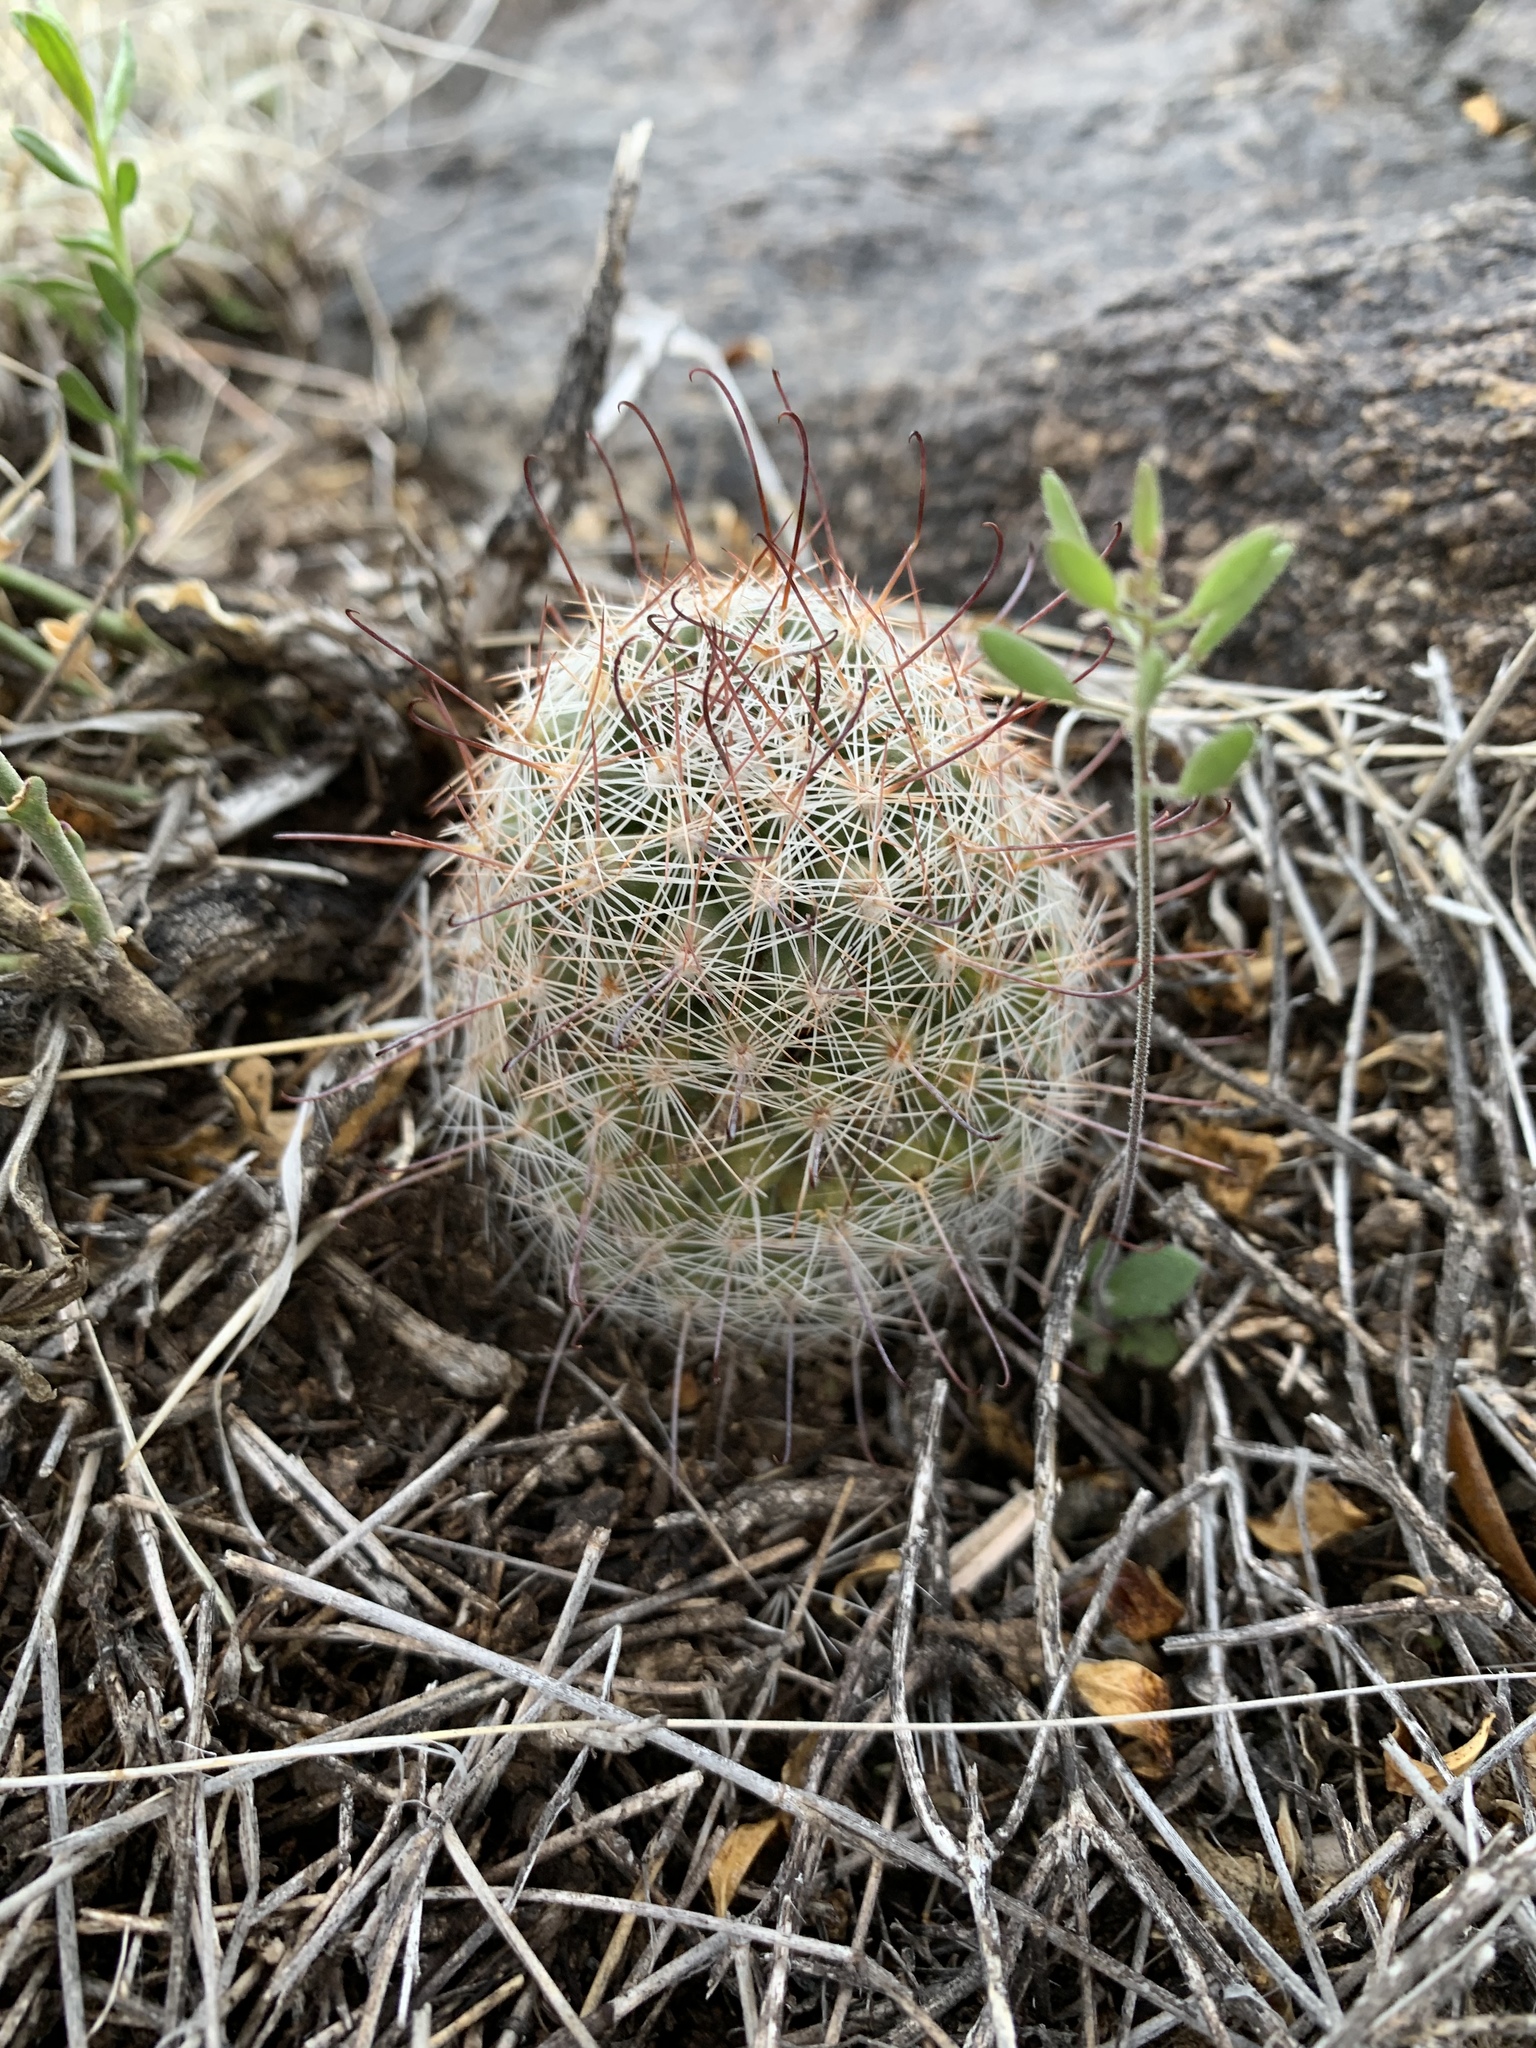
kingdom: Plantae
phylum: Tracheophyta
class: Magnoliopsida
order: Caryophyllales
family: Cactaceae
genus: Cochemiea
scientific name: Cochemiea grahamii
